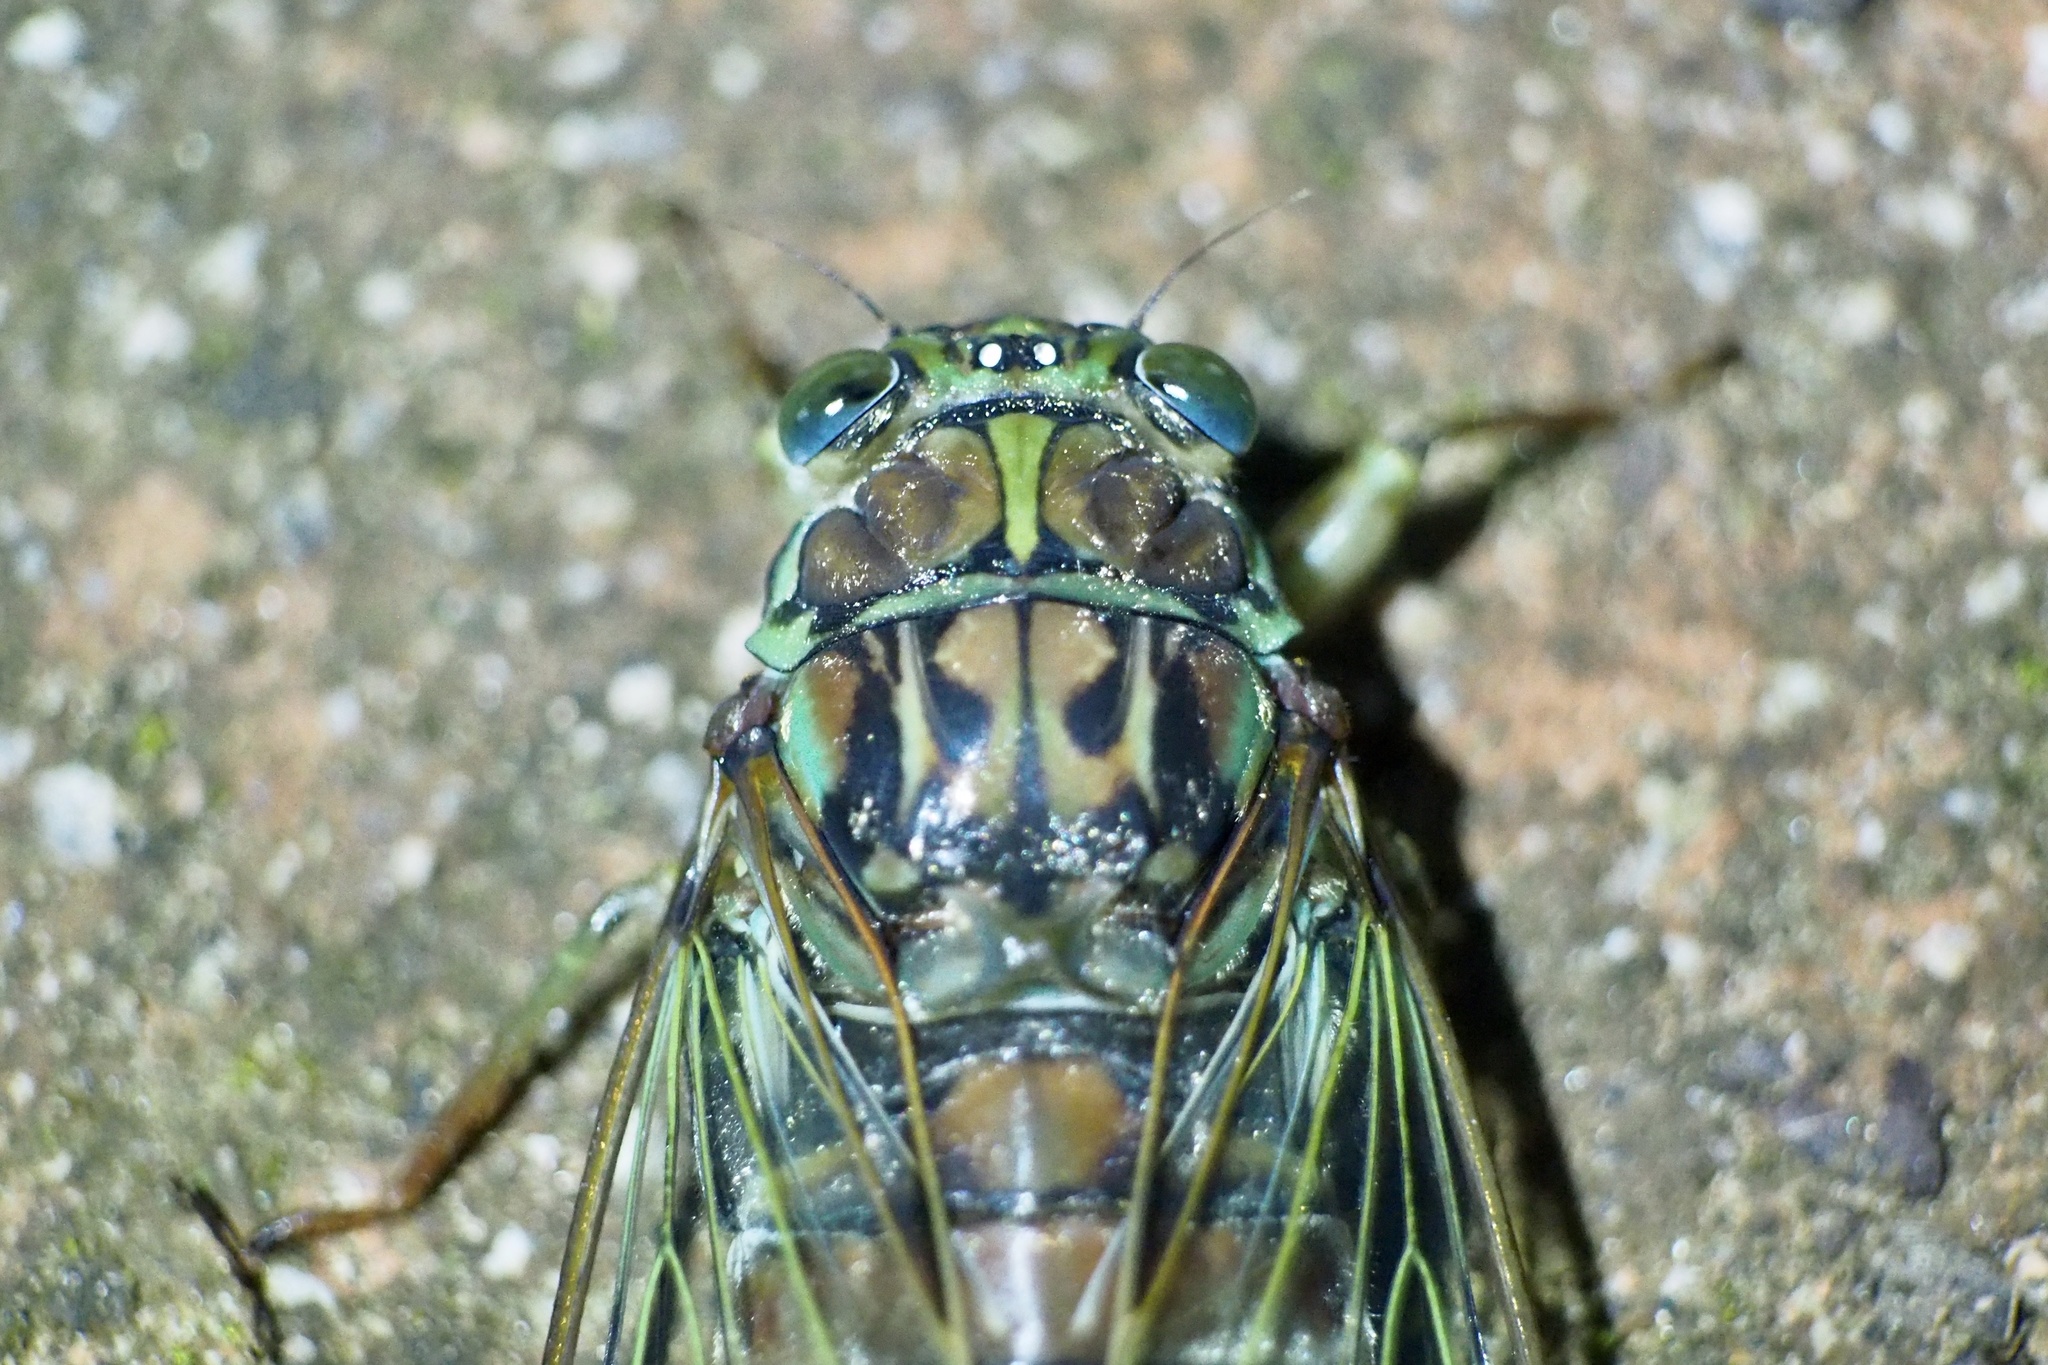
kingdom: Animalia
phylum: Arthropoda
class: Insecta
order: Hemiptera
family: Cicadidae
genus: Tanna
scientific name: Tanna japonensis
